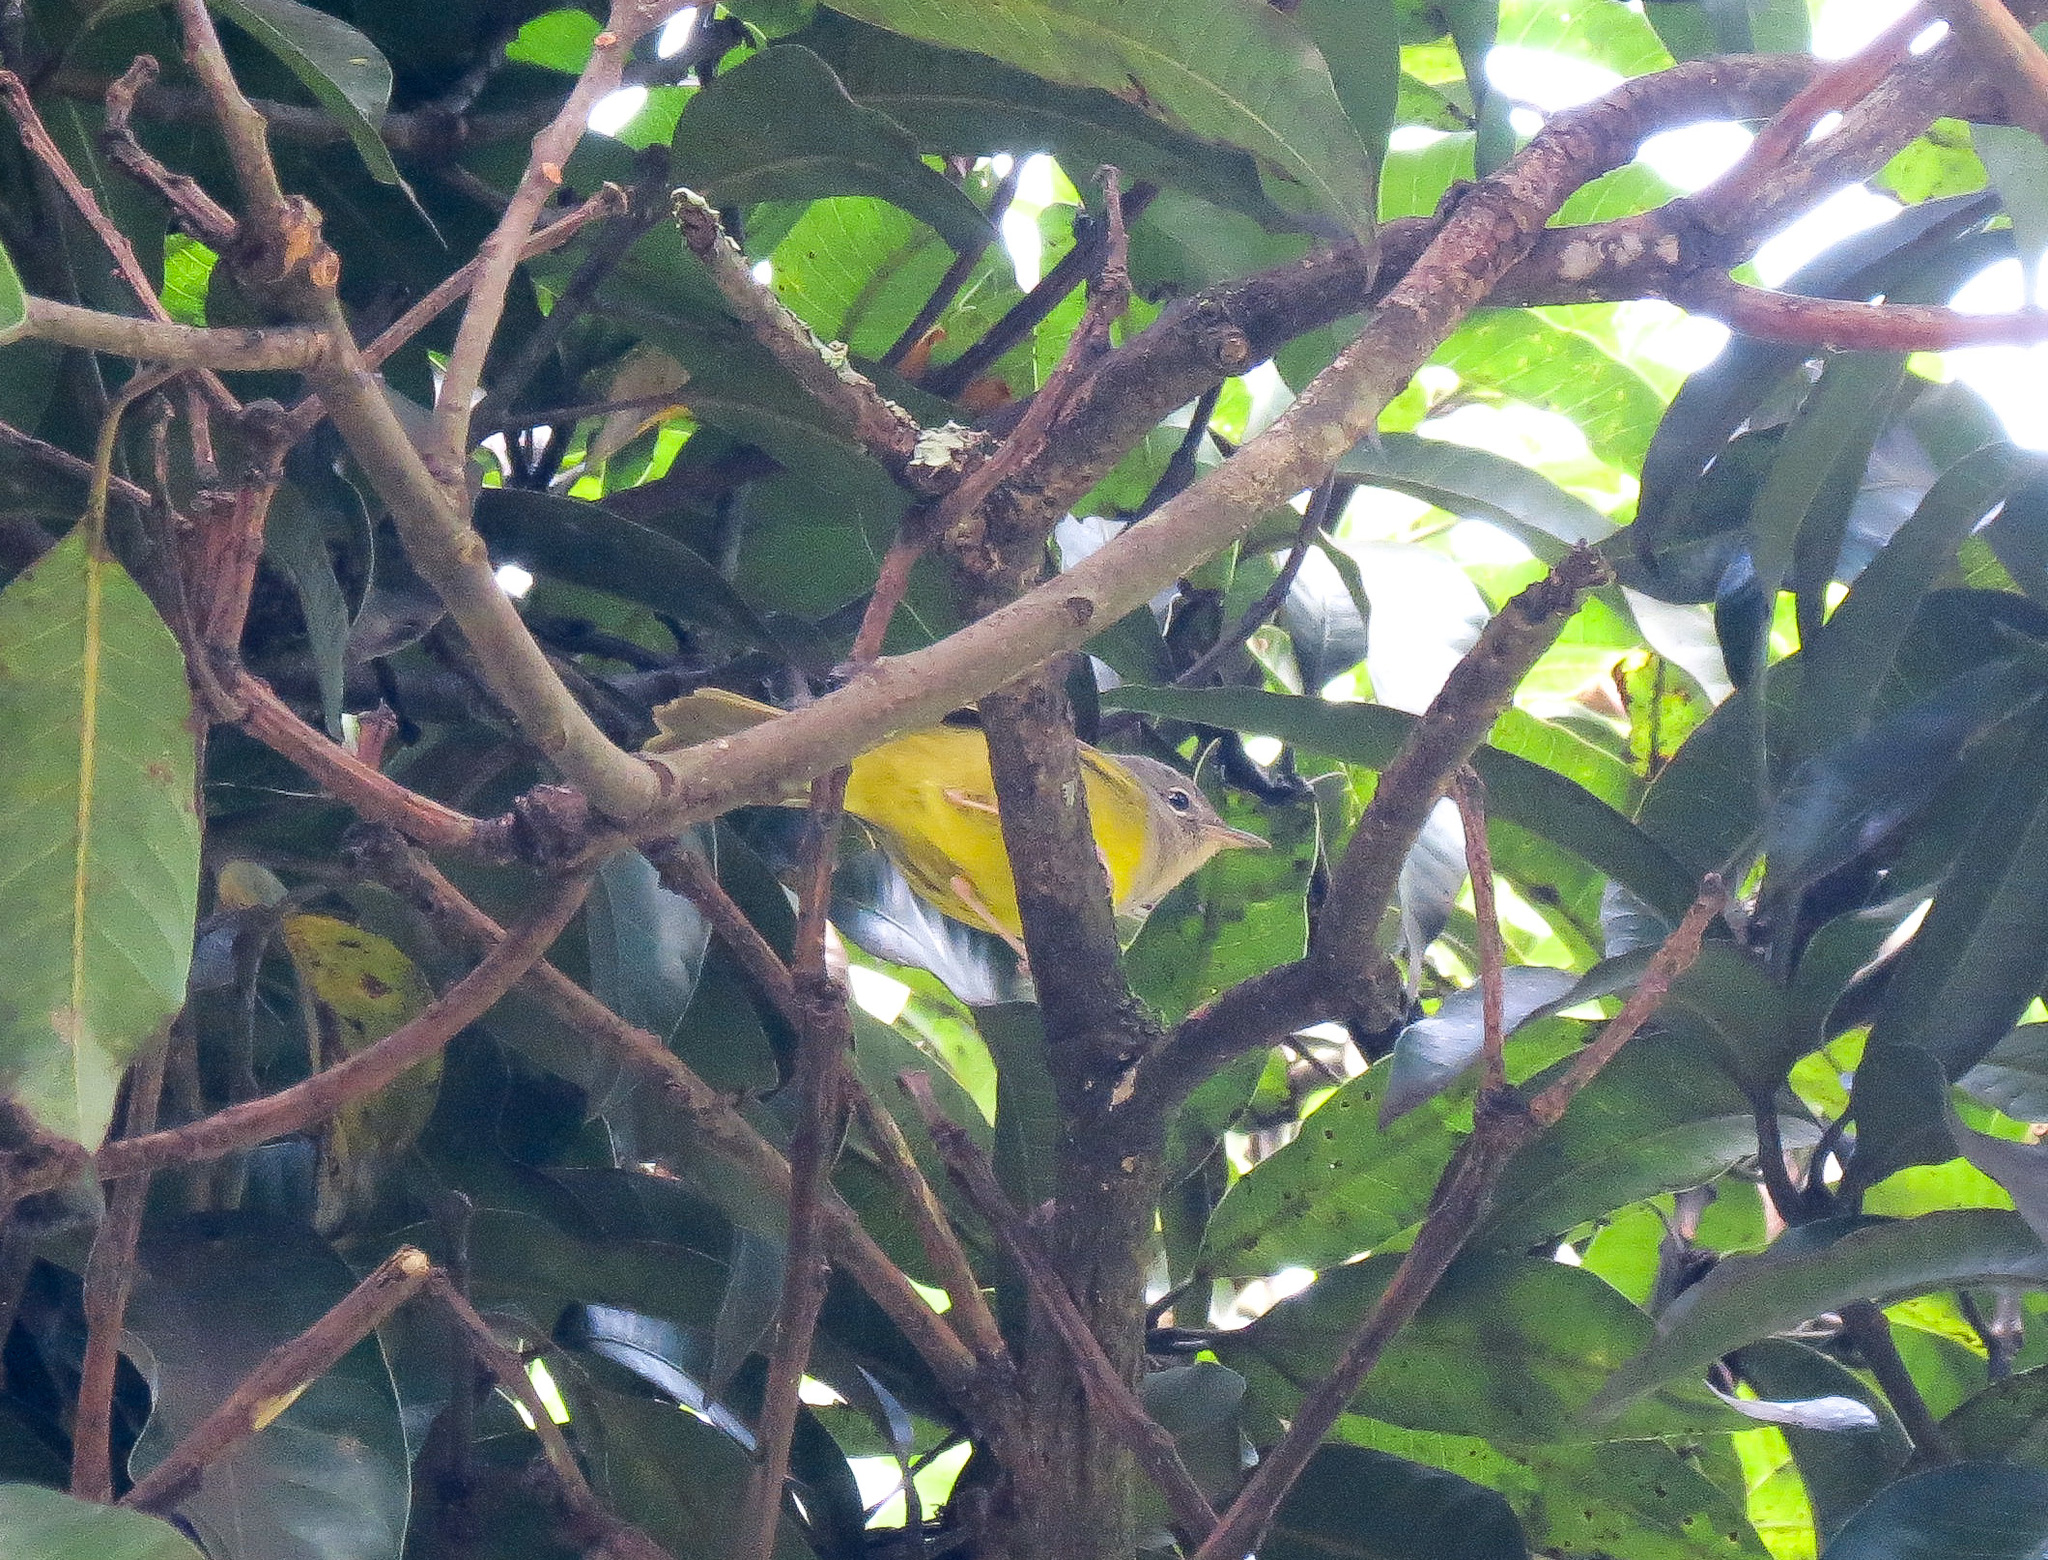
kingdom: Animalia
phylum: Chordata
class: Aves
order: Passeriformes
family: Parulidae
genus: Geothlypis
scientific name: Geothlypis philadelphia
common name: Mourning warbler
